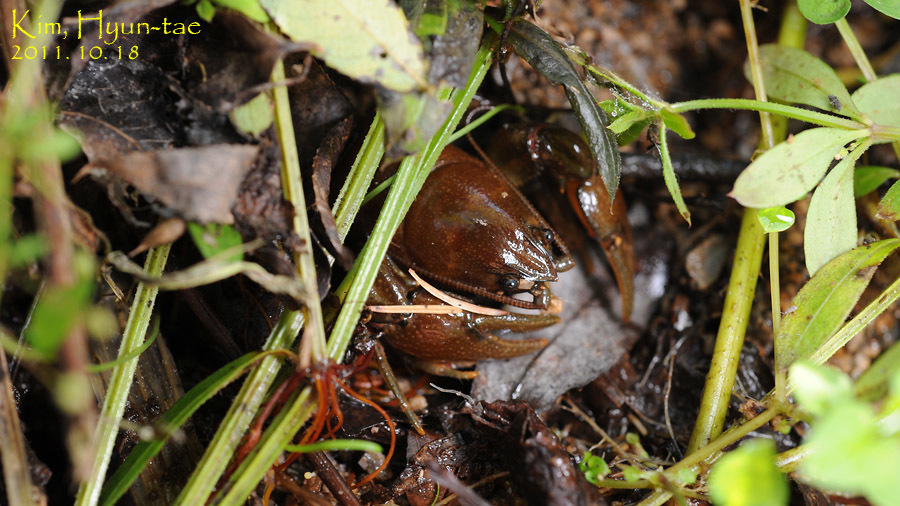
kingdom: Animalia
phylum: Arthropoda
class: Malacostraca
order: Decapoda
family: Cambaroididae
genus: Cambaroides
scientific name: Cambaroides similis
